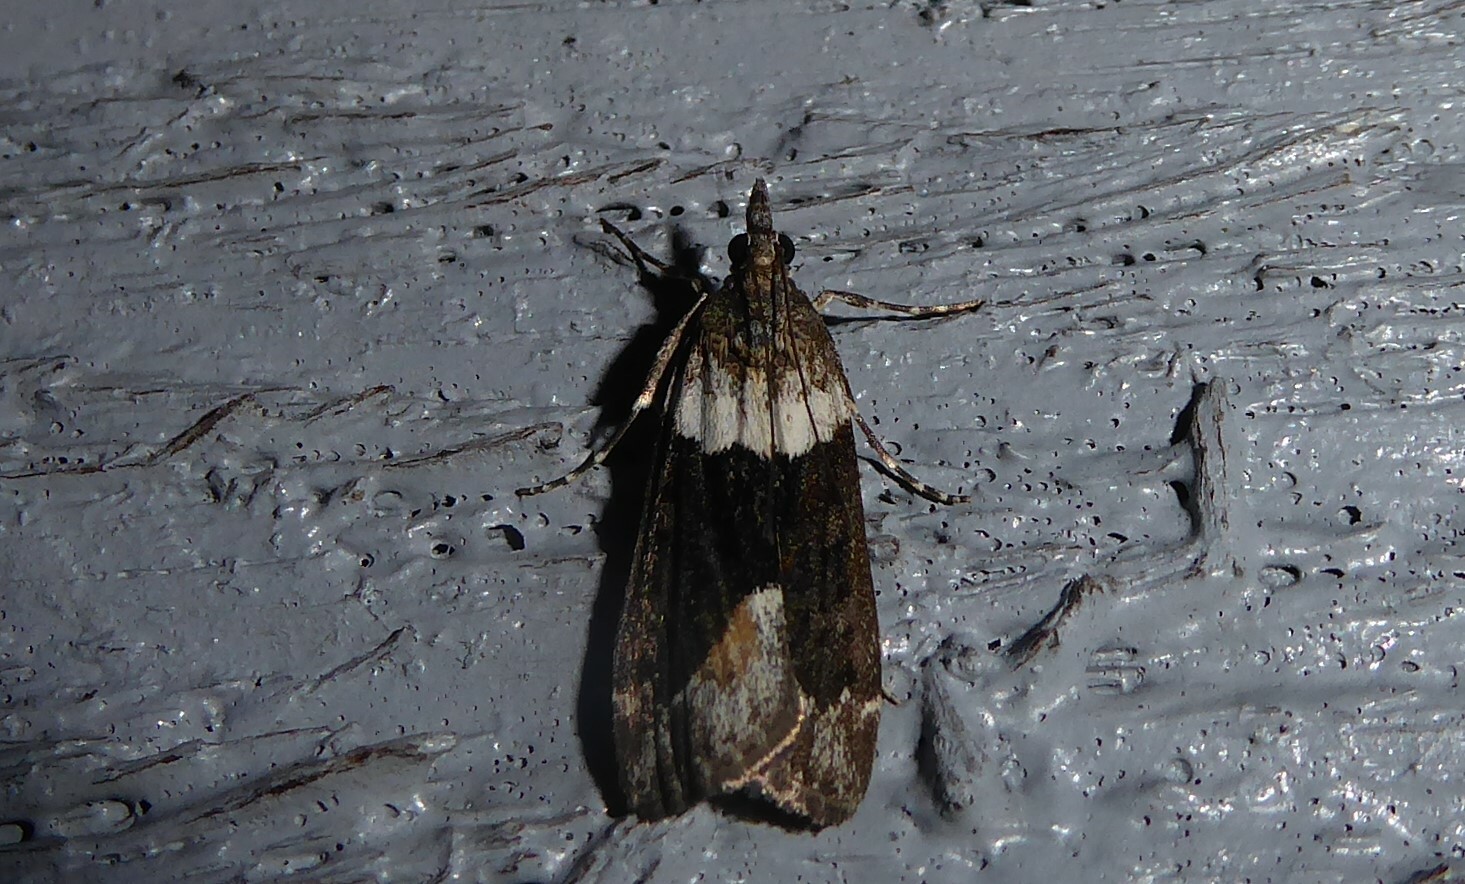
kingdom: Animalia
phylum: Arthropoda
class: Insecta
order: Lepidoptera
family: Crambidae
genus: Eudonia
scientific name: Eudonia submarginalis
